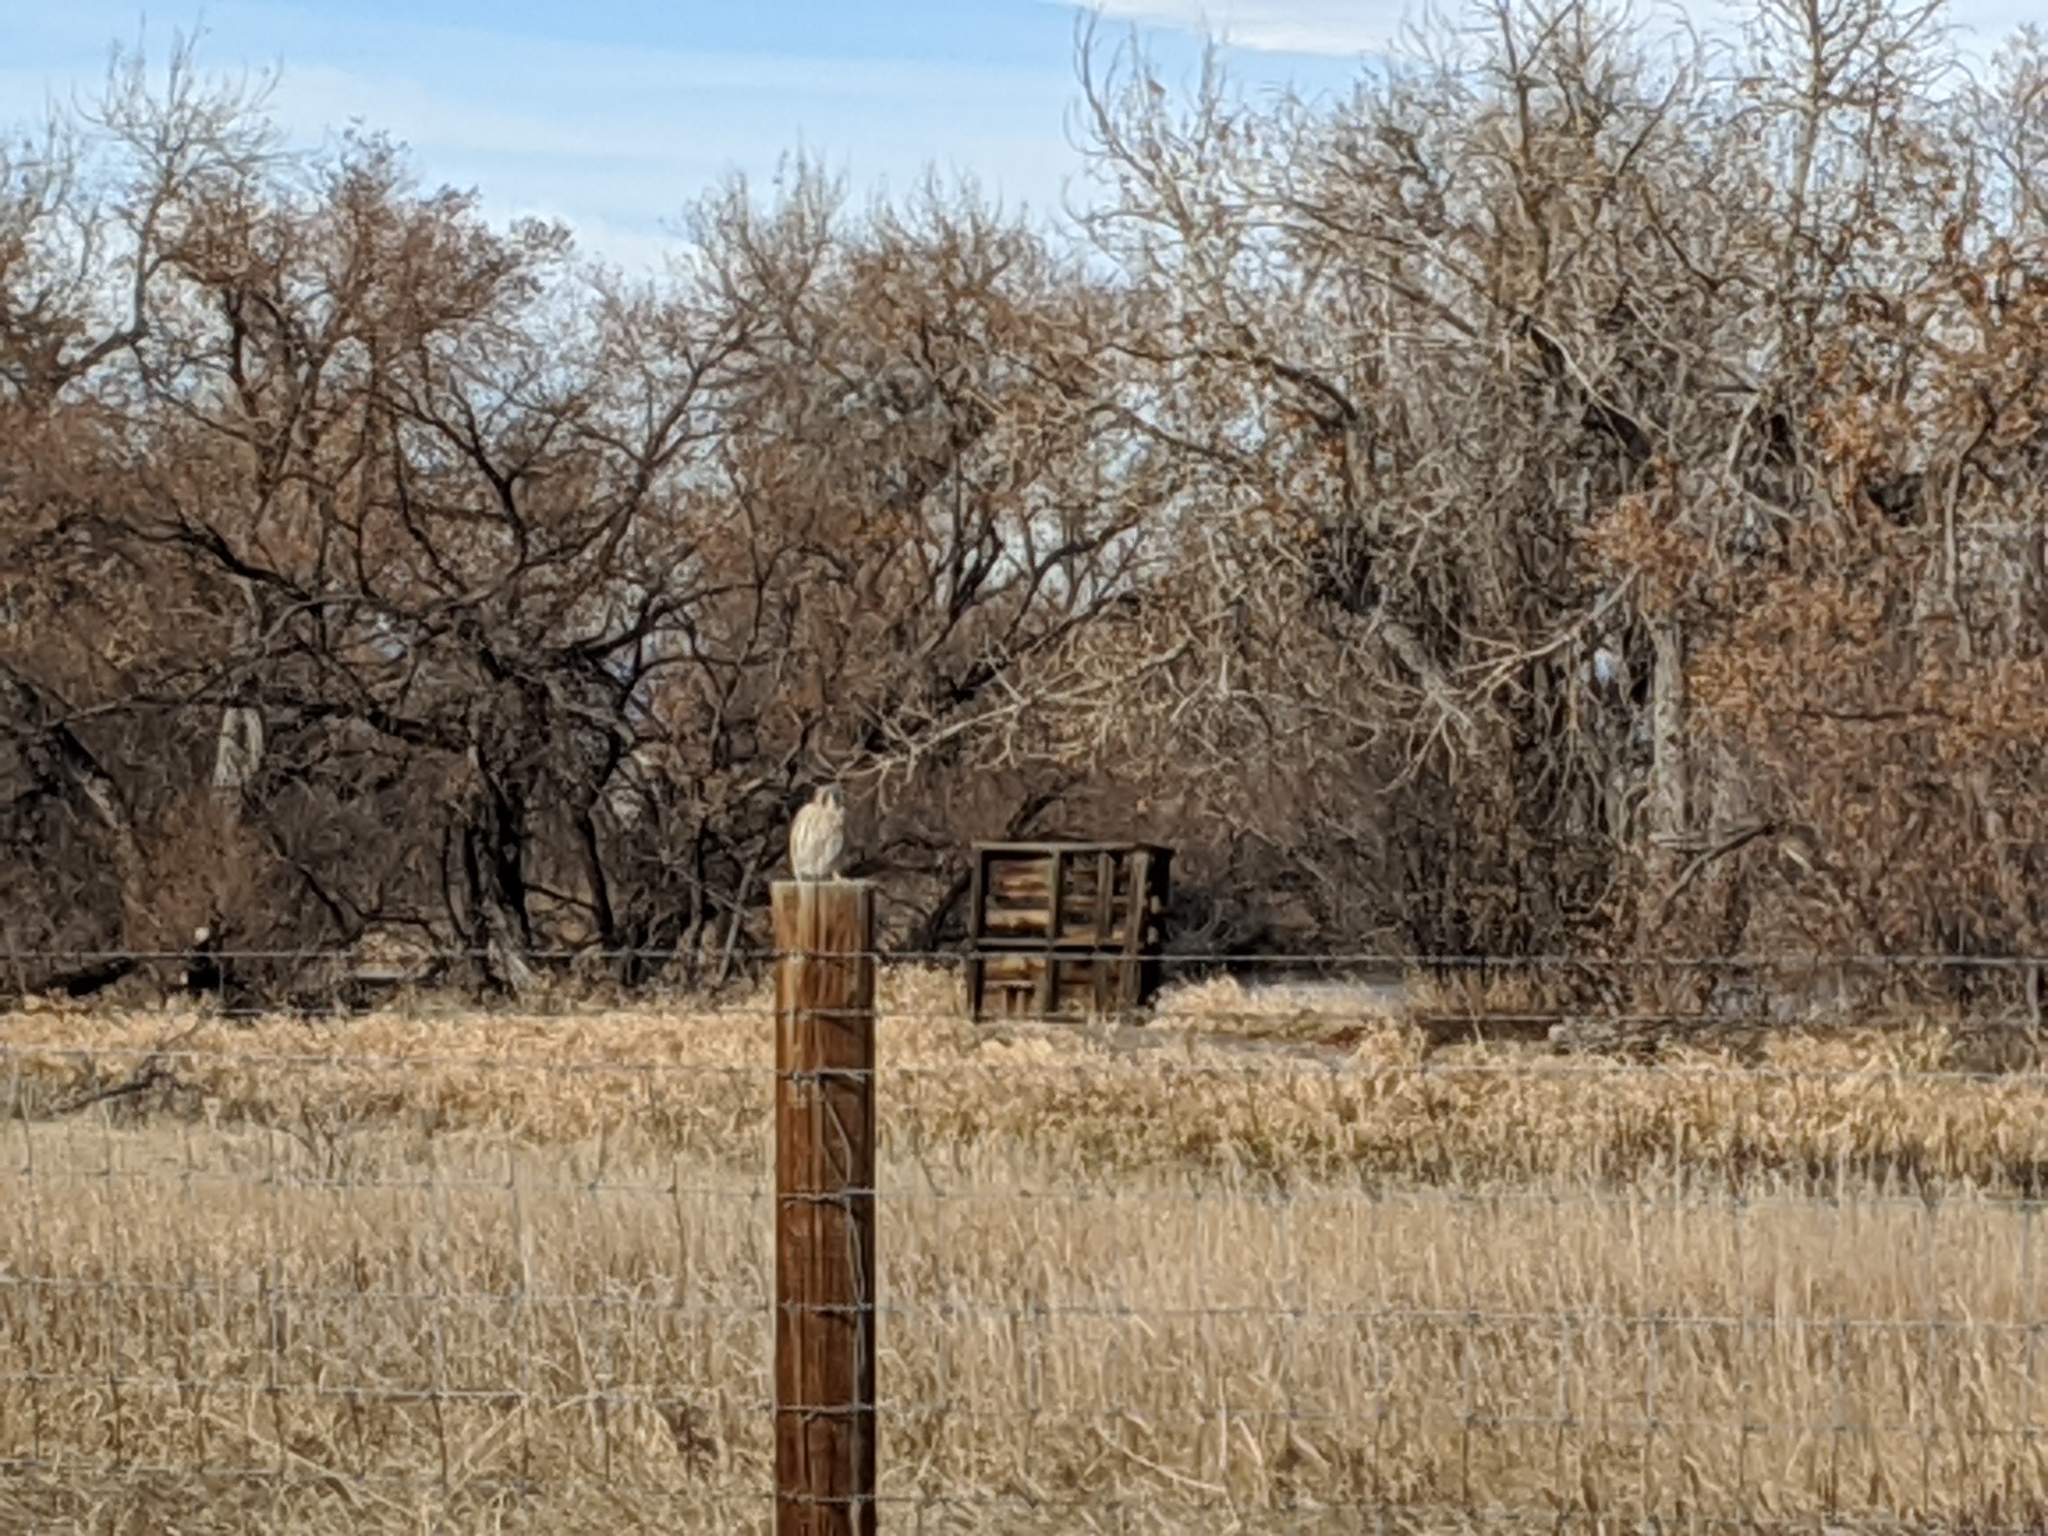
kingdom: Animalia
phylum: Chordata
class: Aves
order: Falconiformes
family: Falconidae
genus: Falco
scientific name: Falco sparverius
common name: American kestrel
